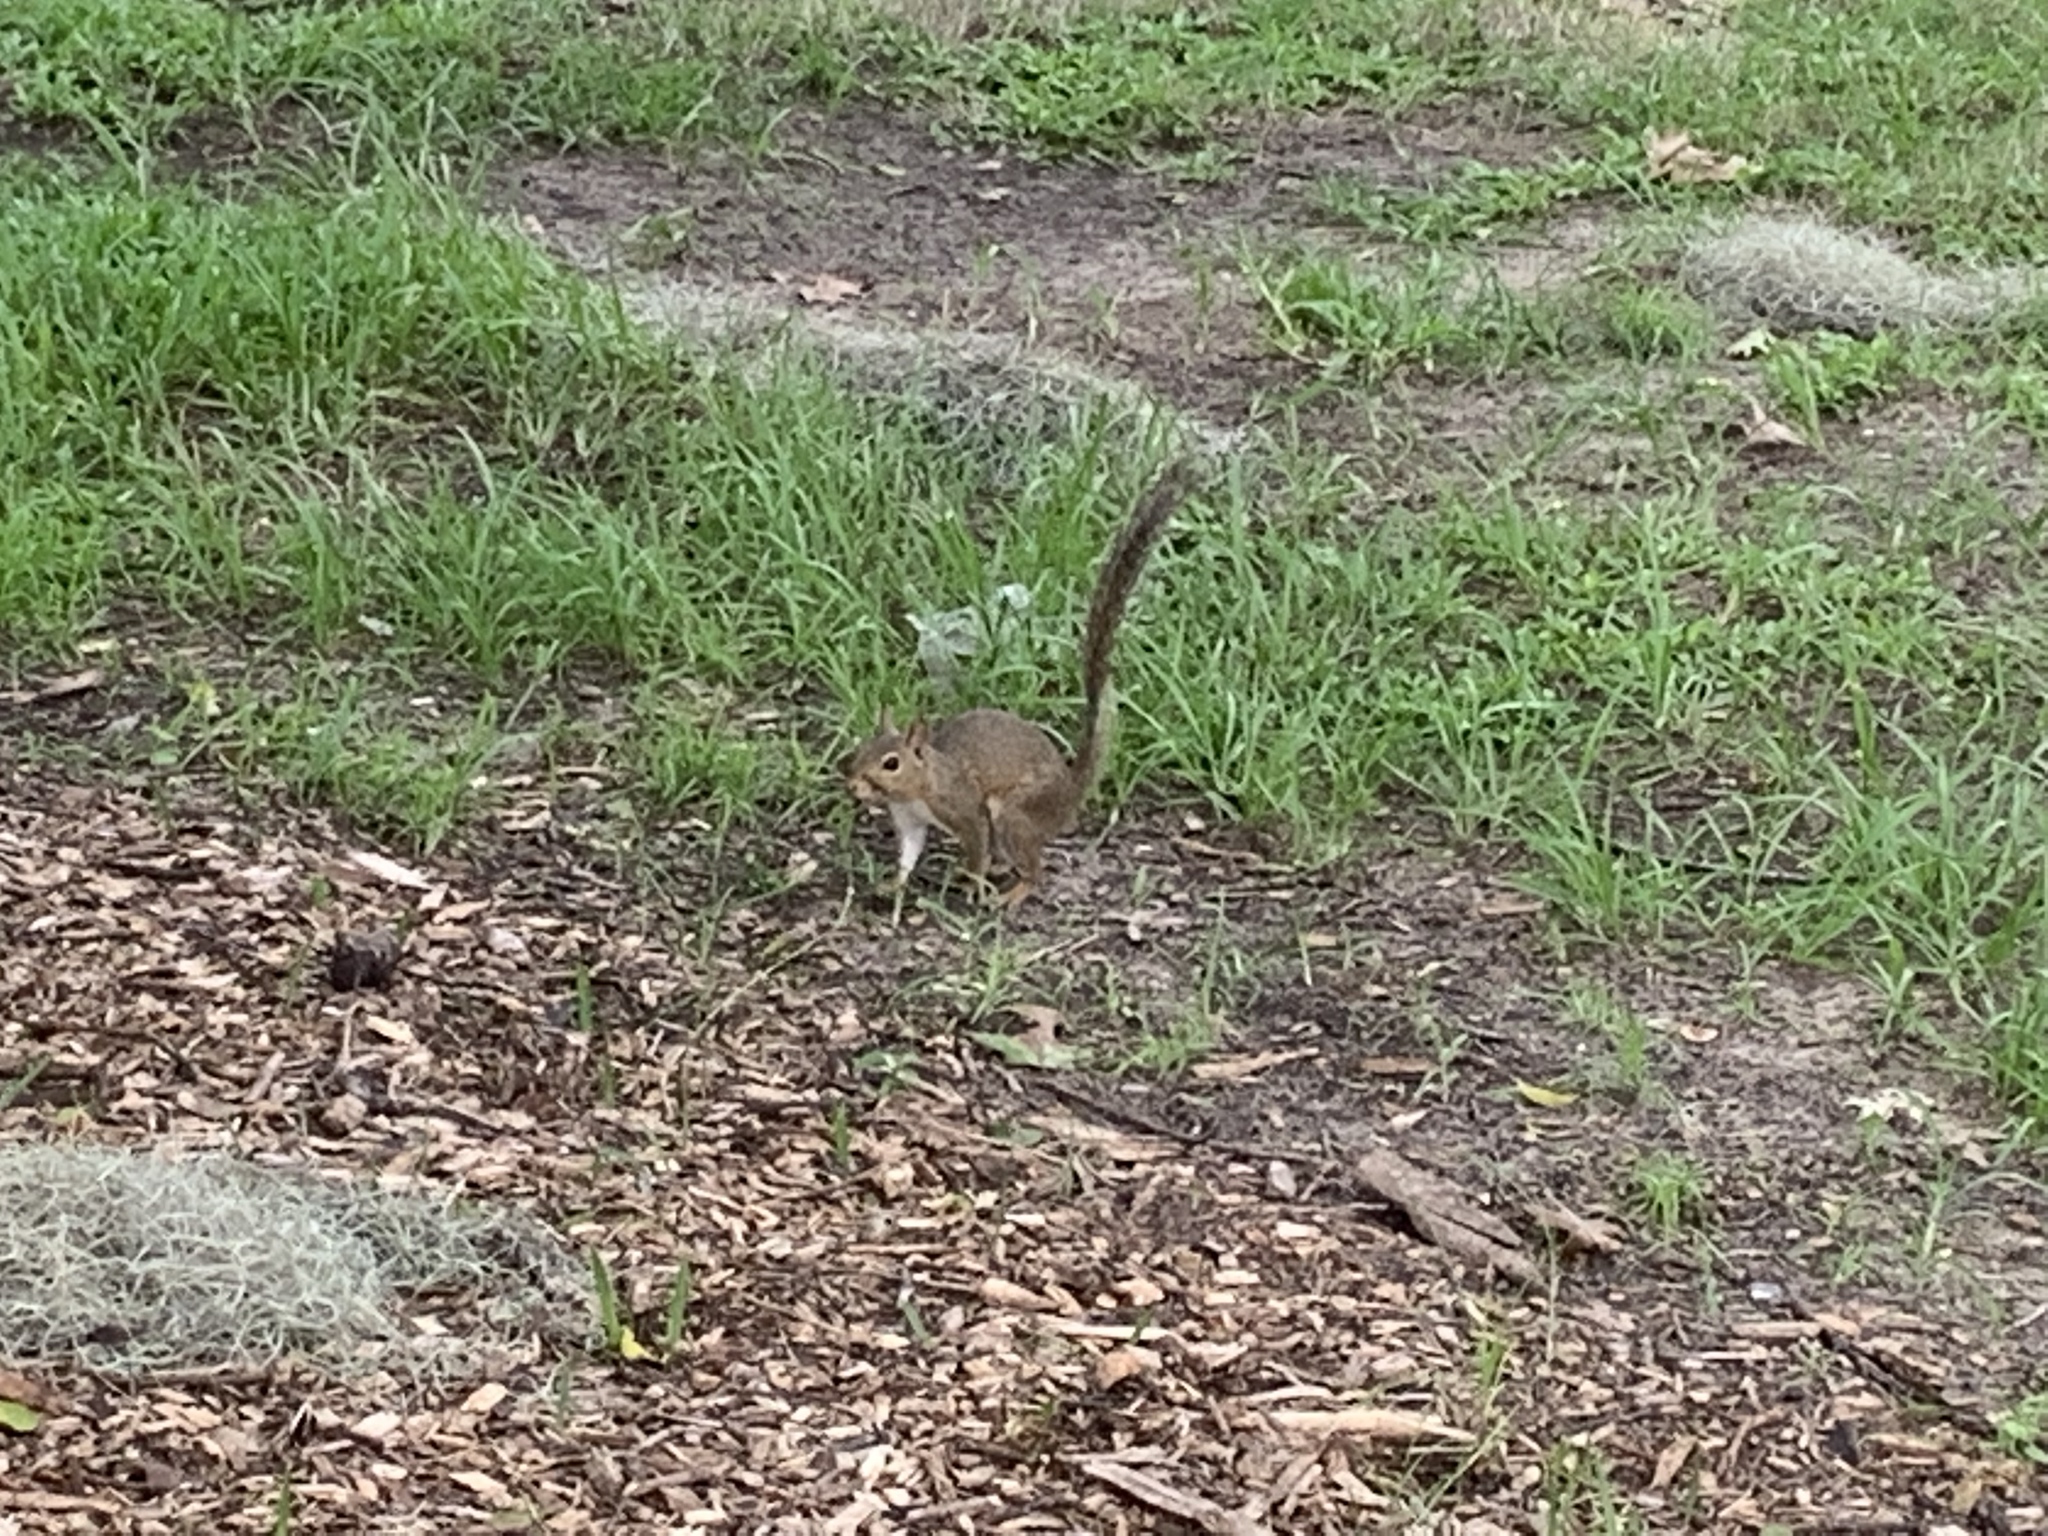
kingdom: Animalia
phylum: Chordata
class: Mammalia
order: Rodentia
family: Sciuridae
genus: Sciurus
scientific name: Sciurus carolinensis
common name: Eastern gray squirrel
